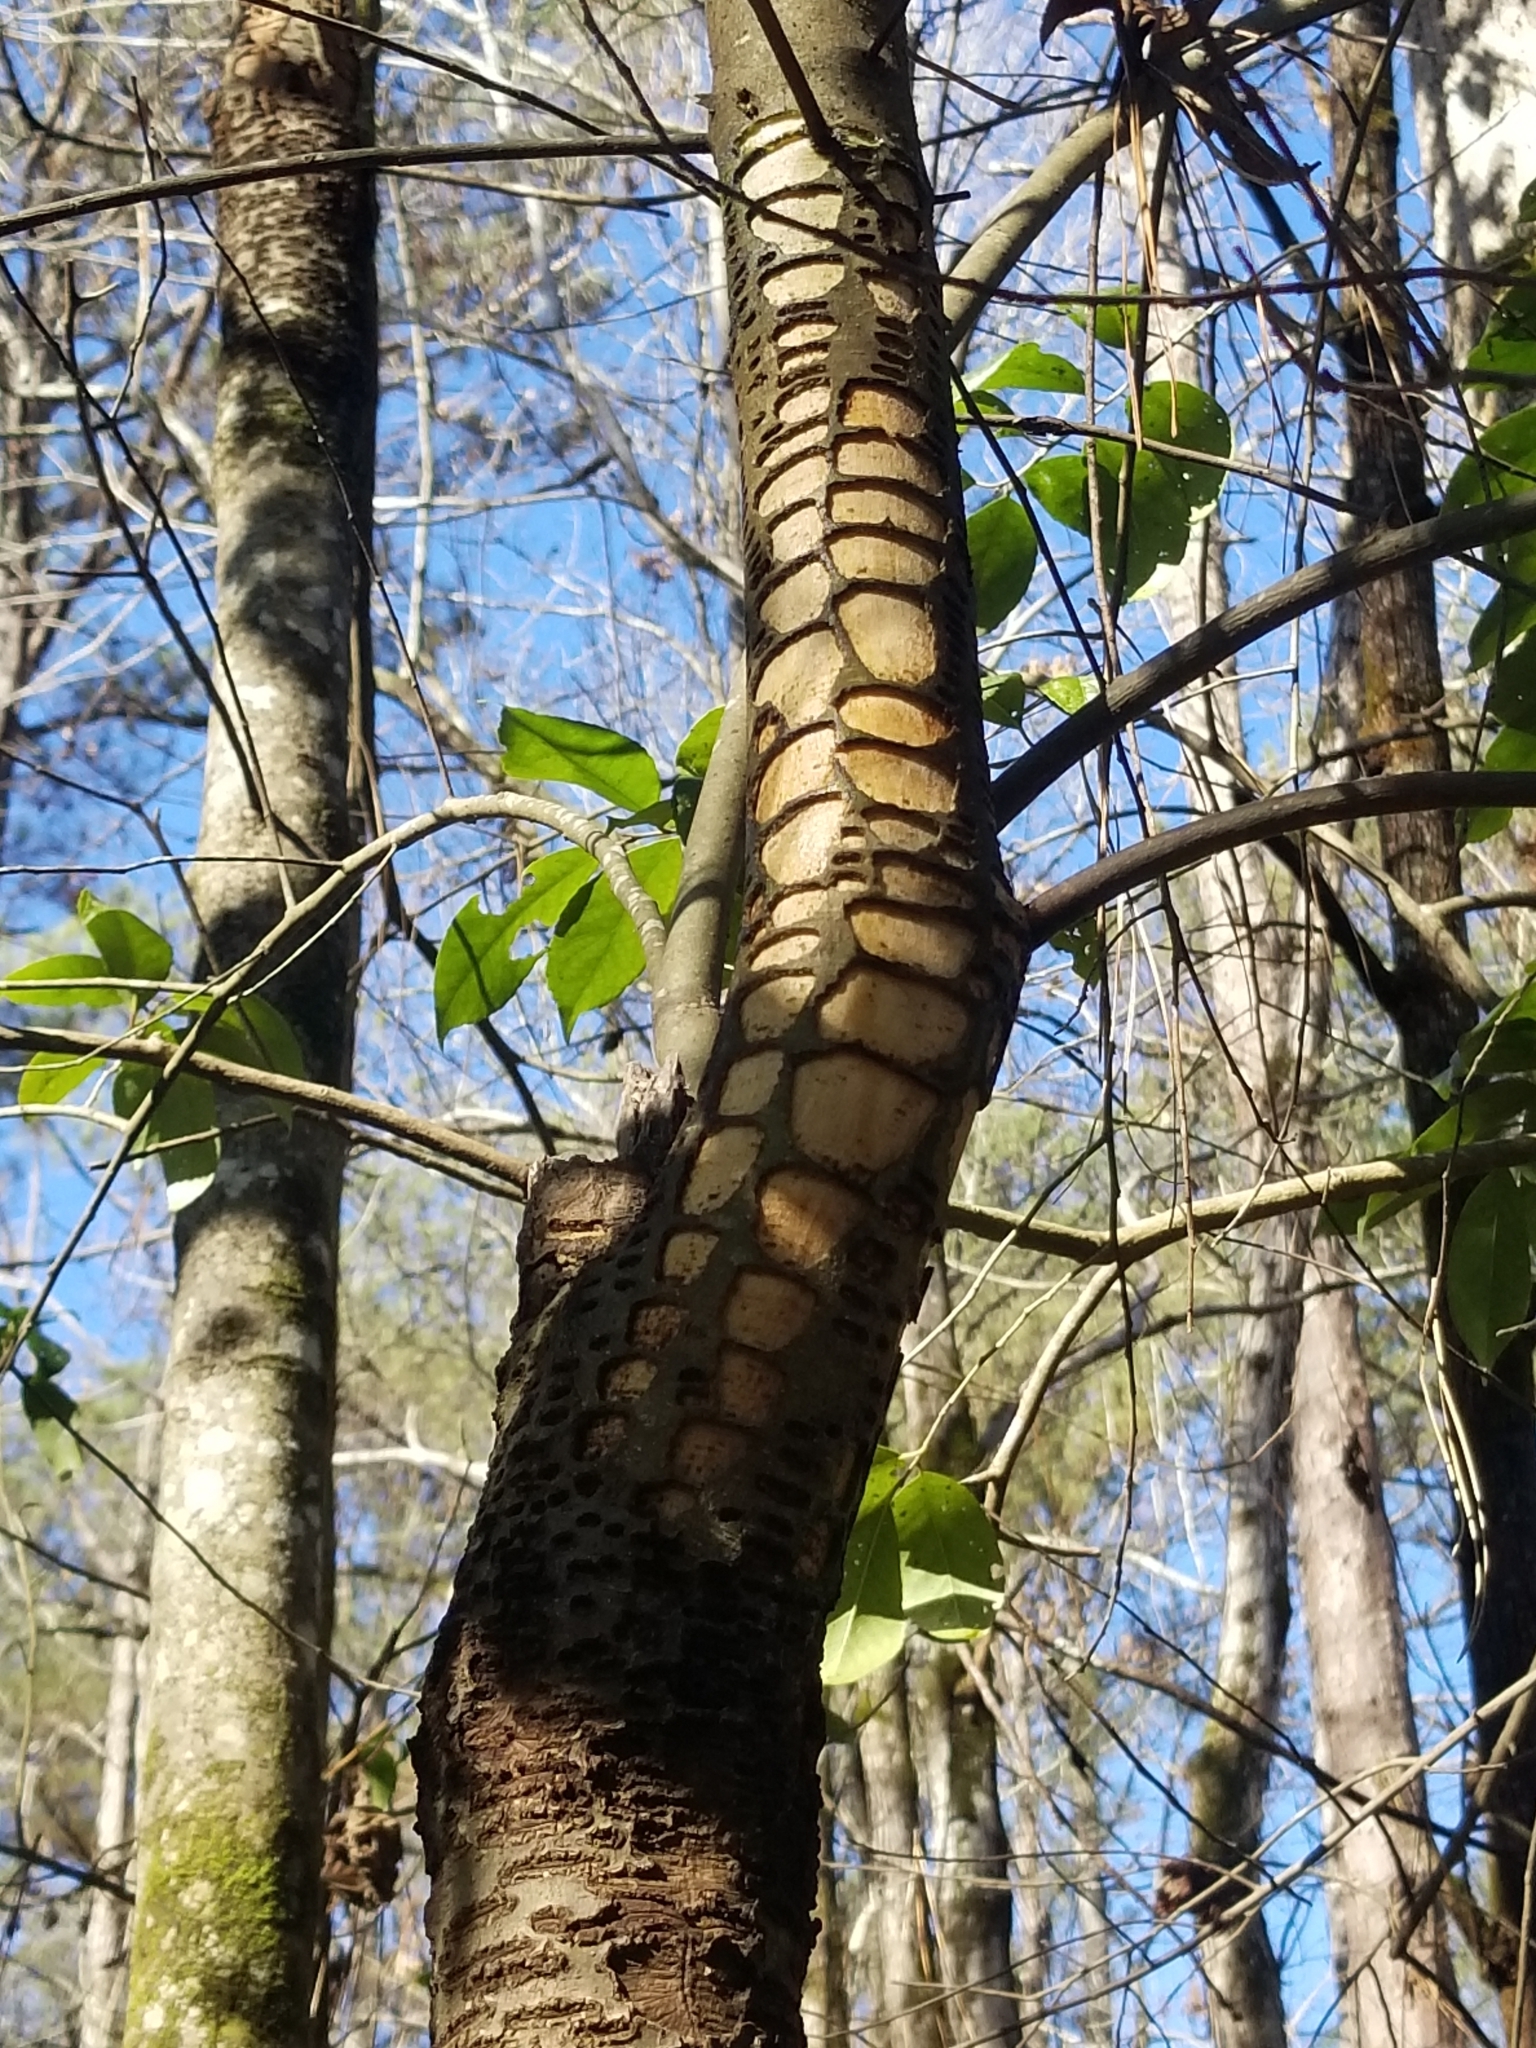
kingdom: Animalia
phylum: Chordata
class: Aves
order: Piciformes
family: Picidae
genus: Sphyrapicus
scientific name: Sphyrapicus varius
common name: Yellow-bellied sapsucker
